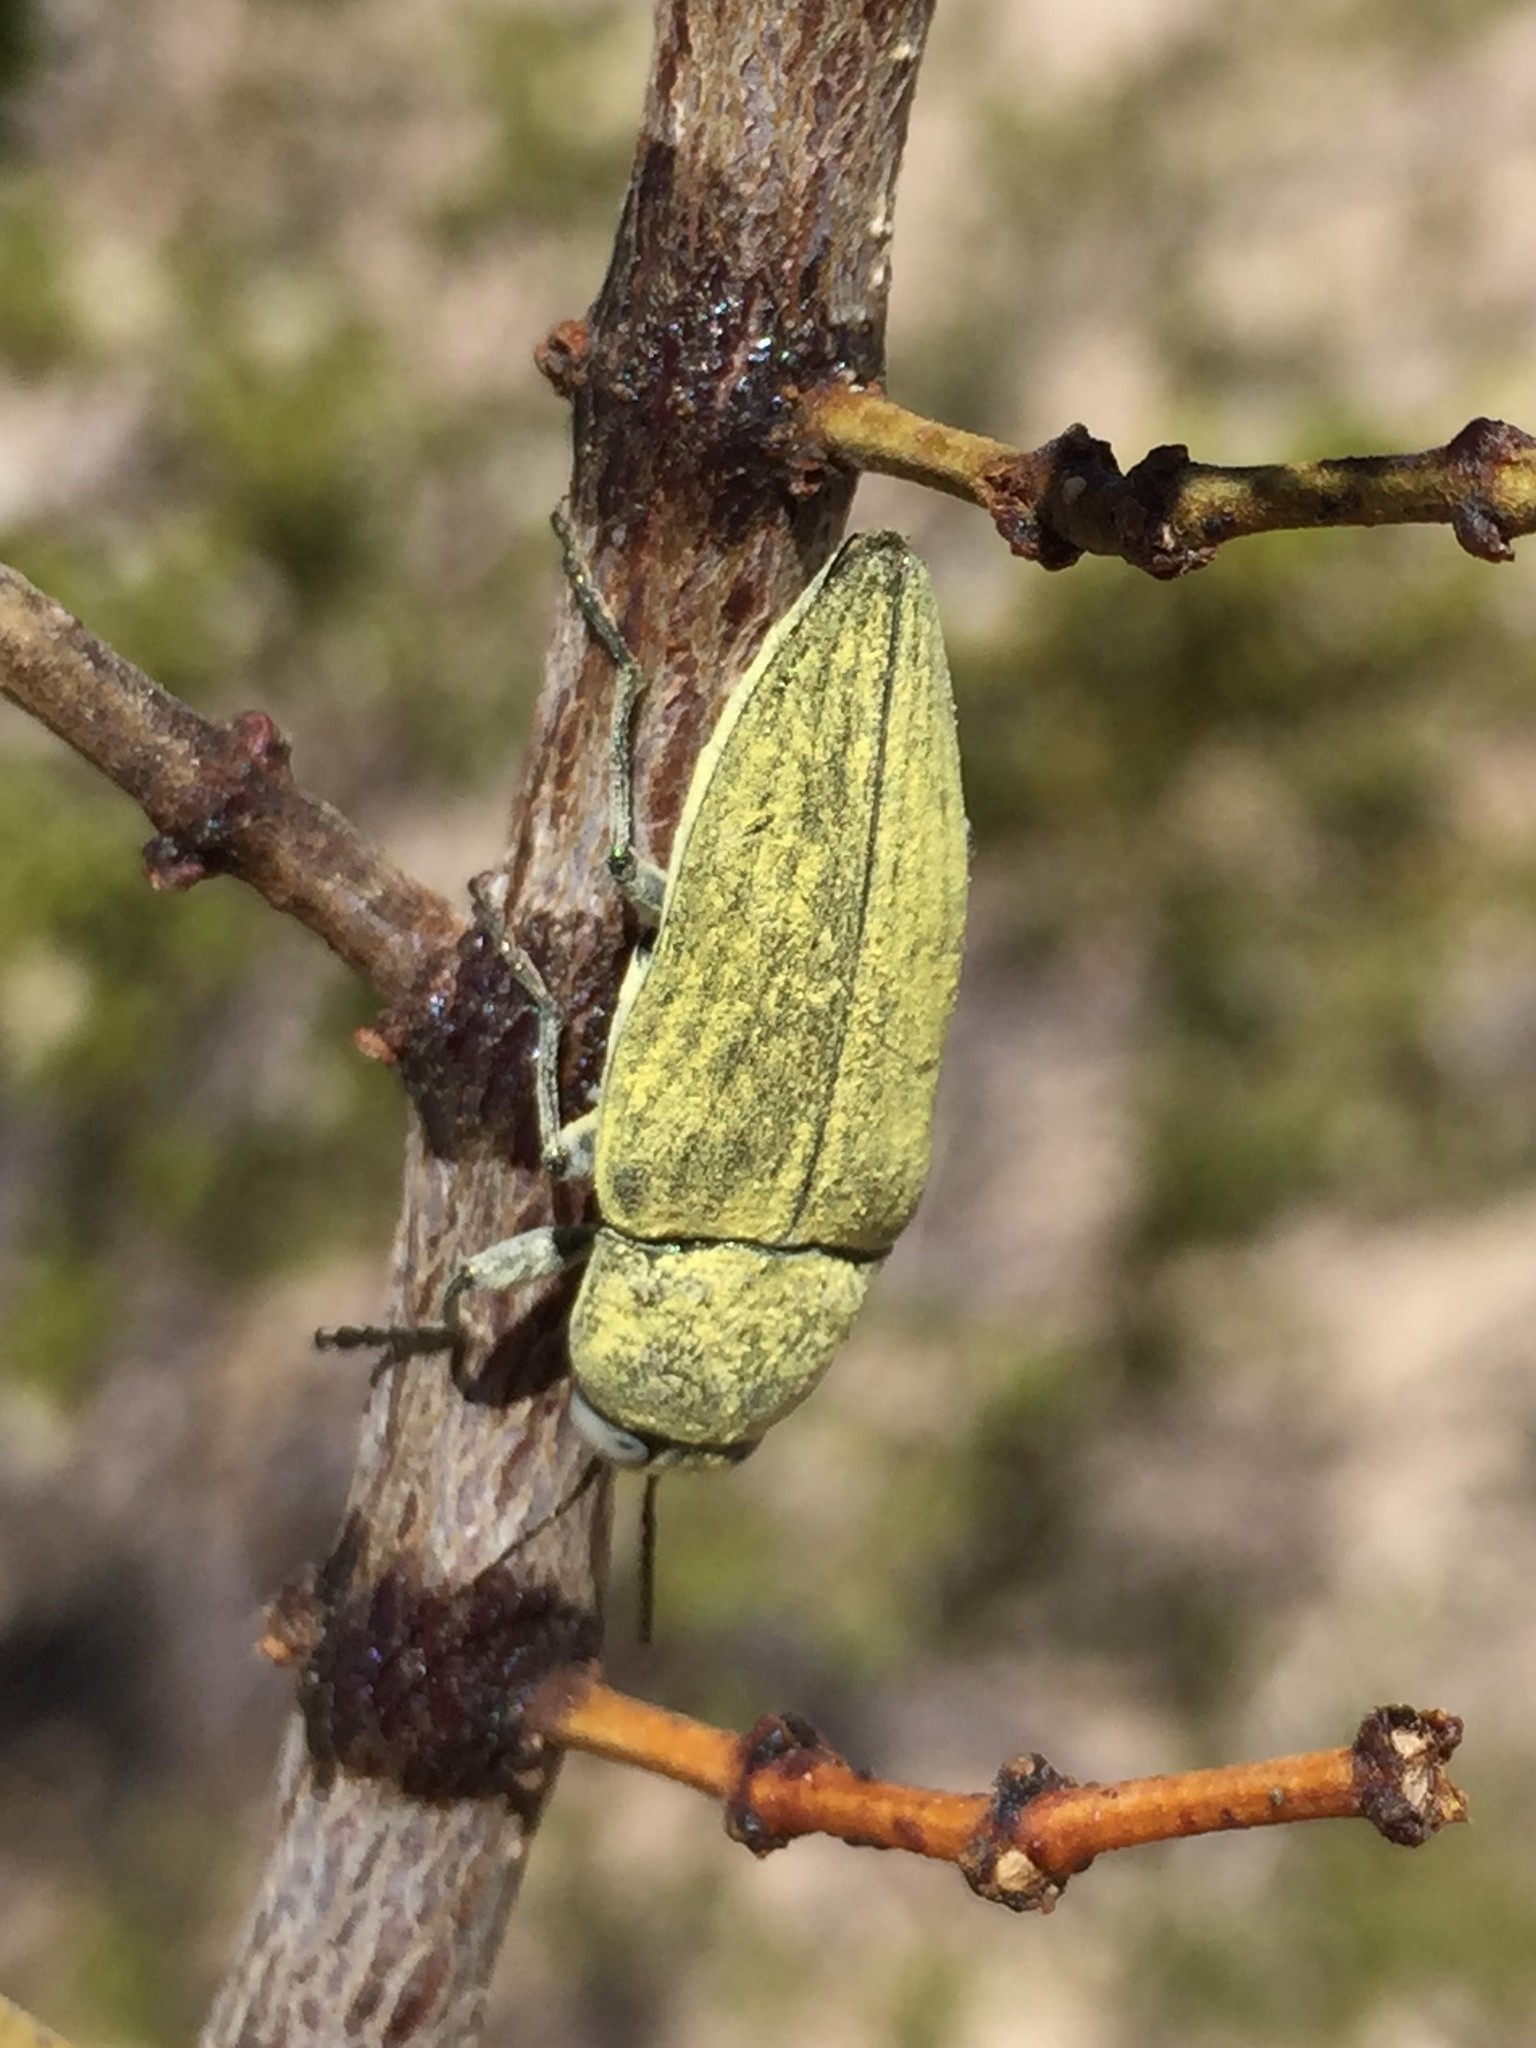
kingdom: Animalia
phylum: Arthropoda
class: Insecta
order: Coleoptera
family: Buprestidae
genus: Gyascutus
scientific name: Gyascutus dianae
